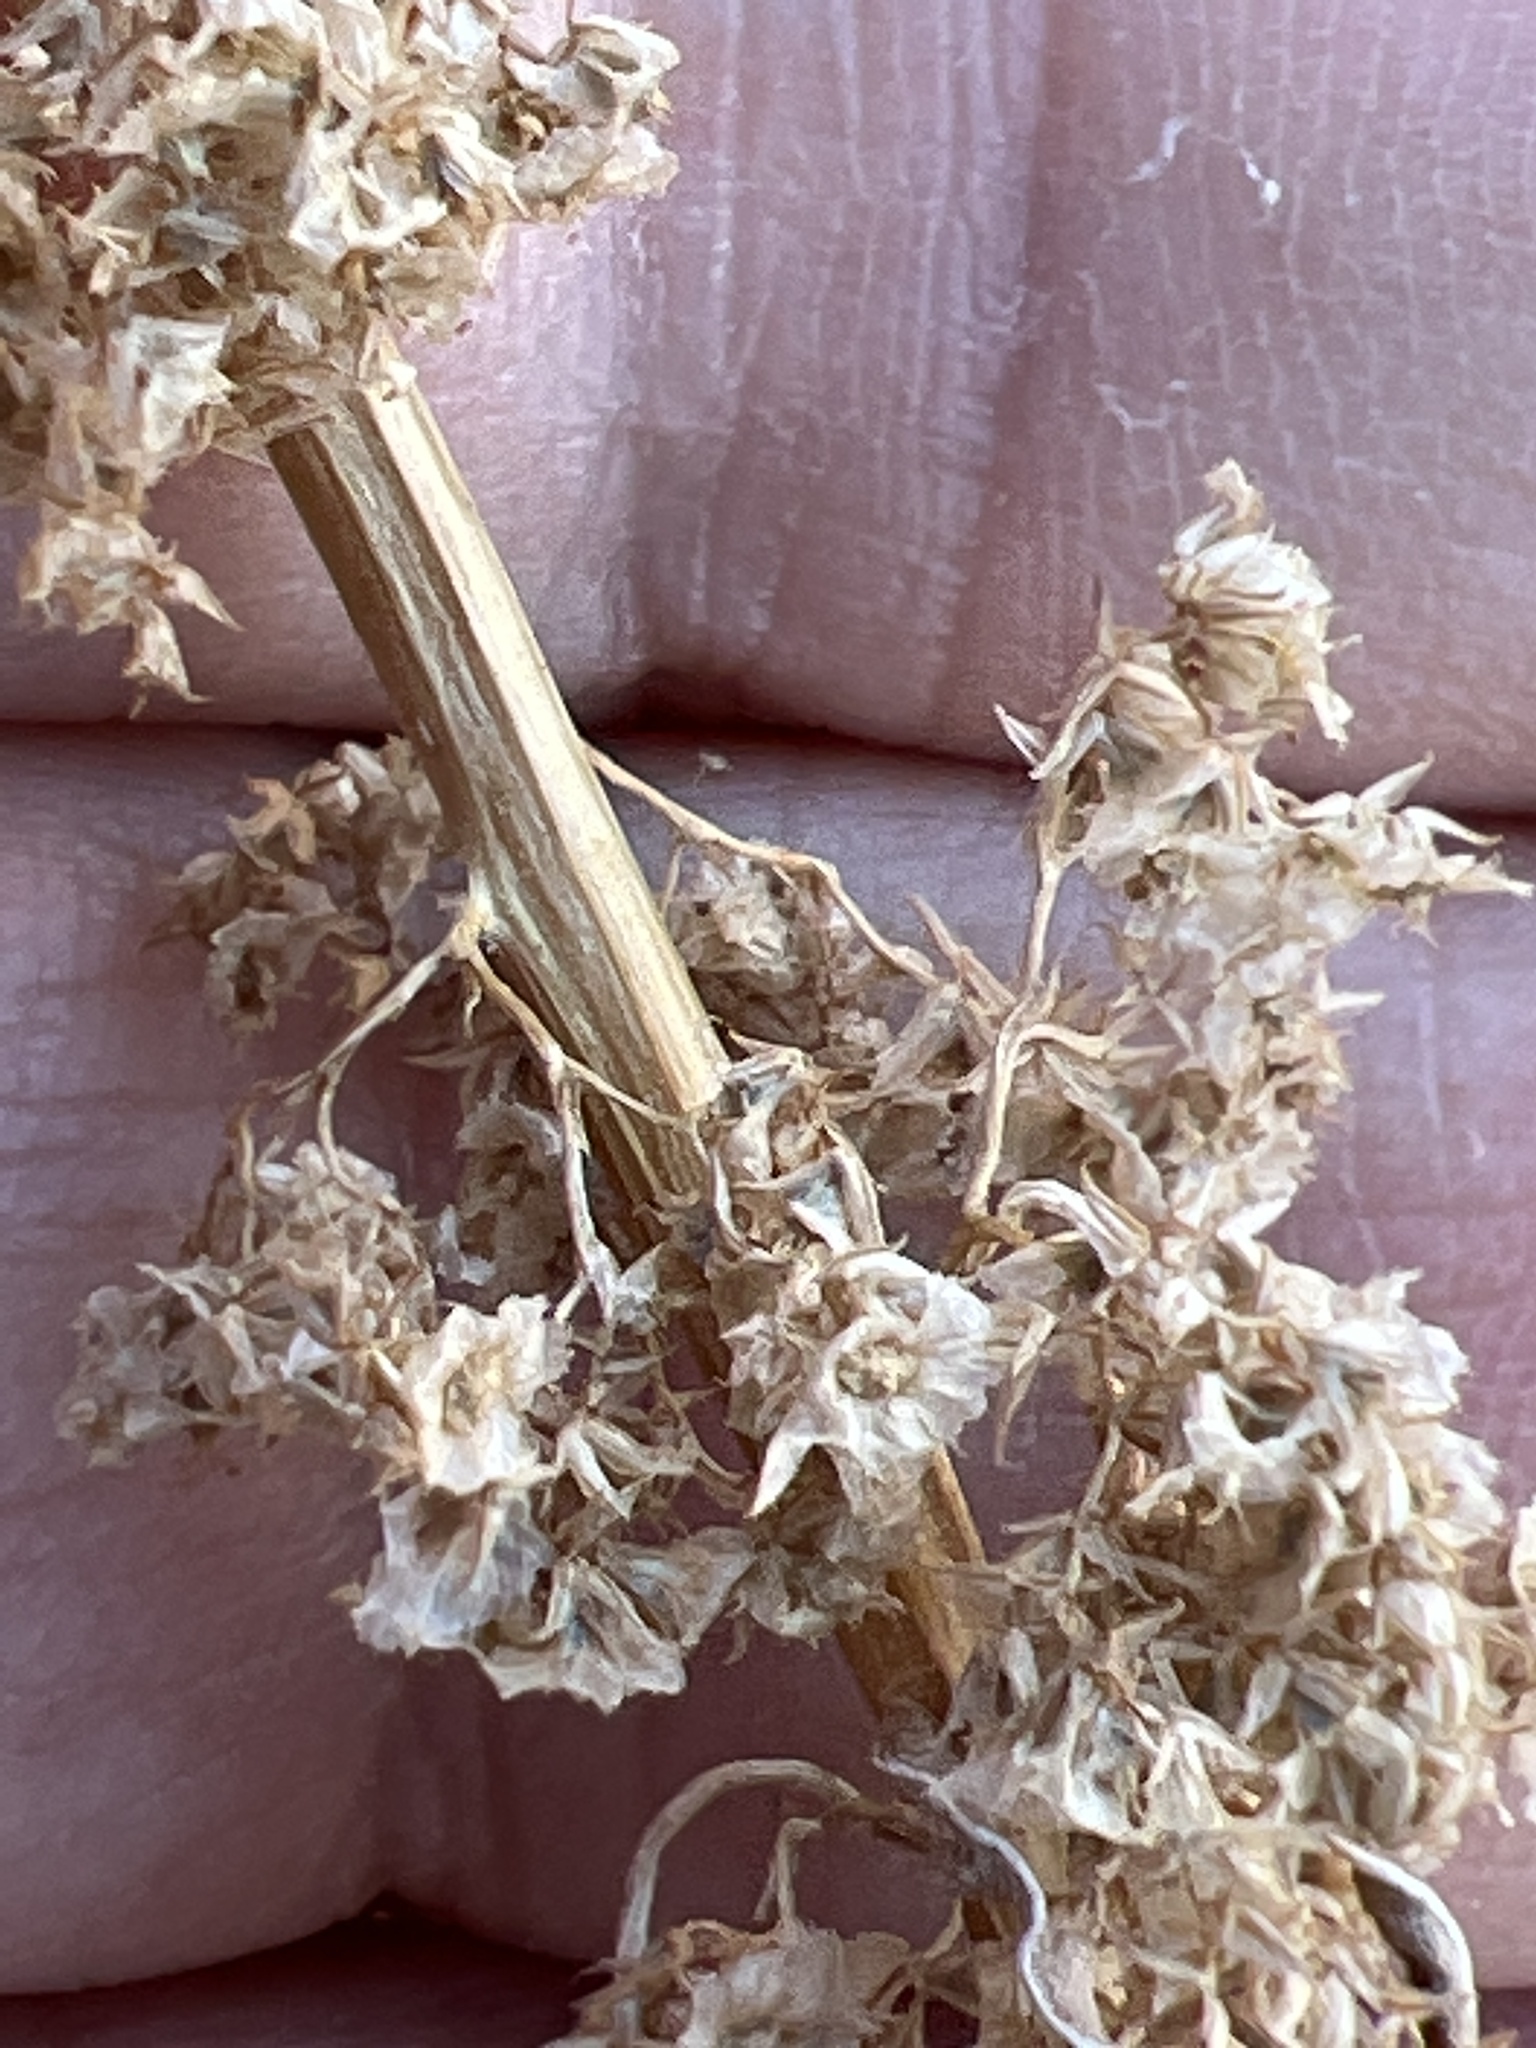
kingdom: Plantae
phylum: Tracheophyta
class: Magnoliopsida
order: Caryophyllales
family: Amaranthaceae
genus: Amaranthus
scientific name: Amaranthus fimbriatus
